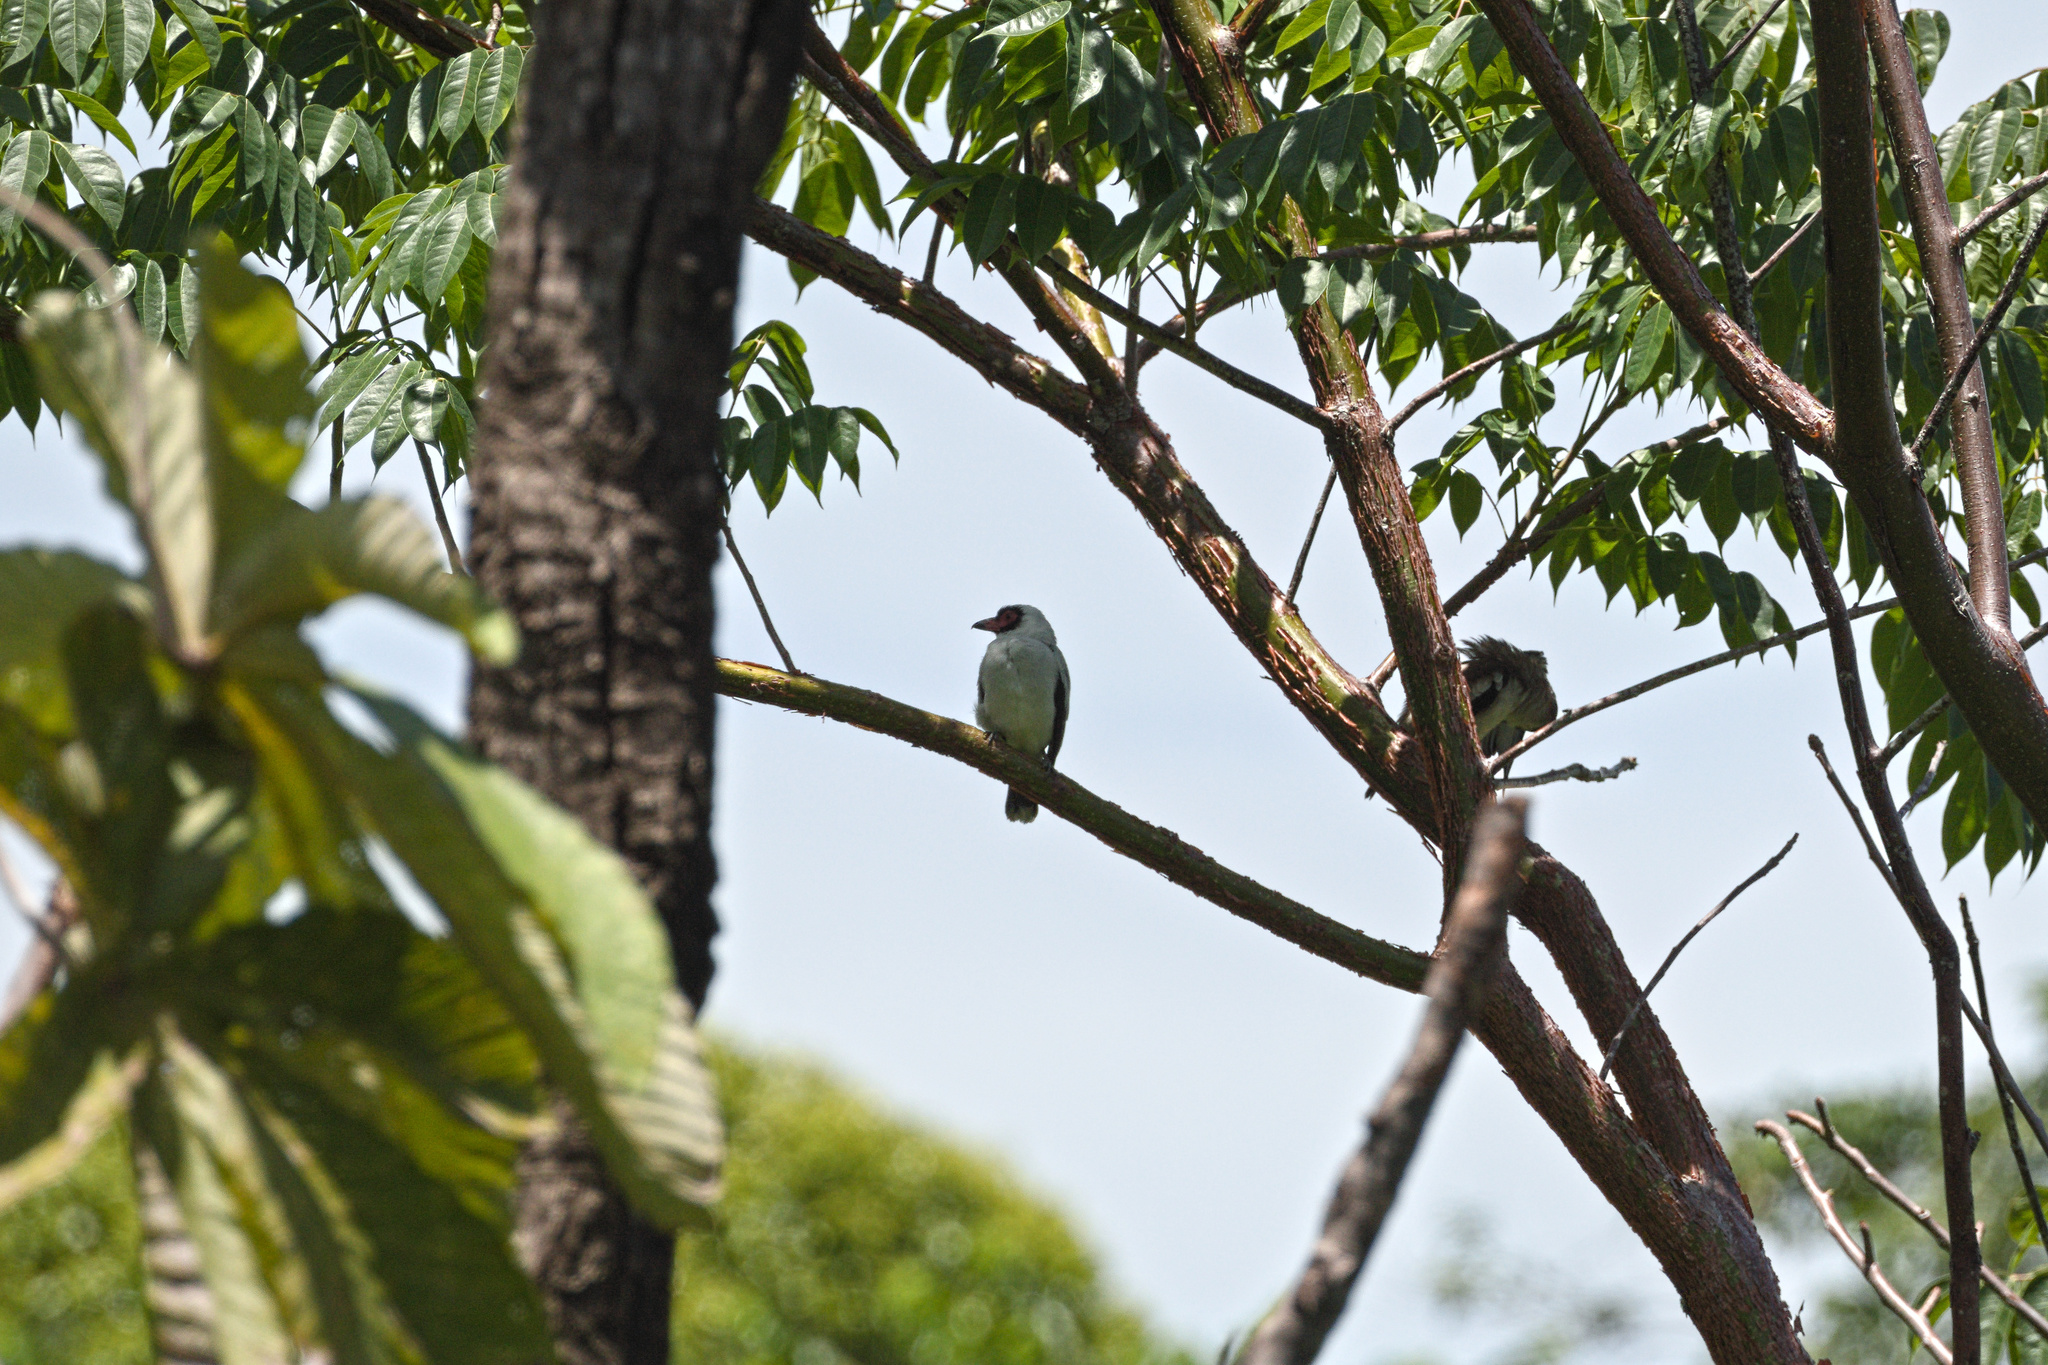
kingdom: Animalia
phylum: Chordata
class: Aves
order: Passeriformes
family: Cotingidae
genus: Tityra
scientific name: Tityra semifasciata
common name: Masked tityra
